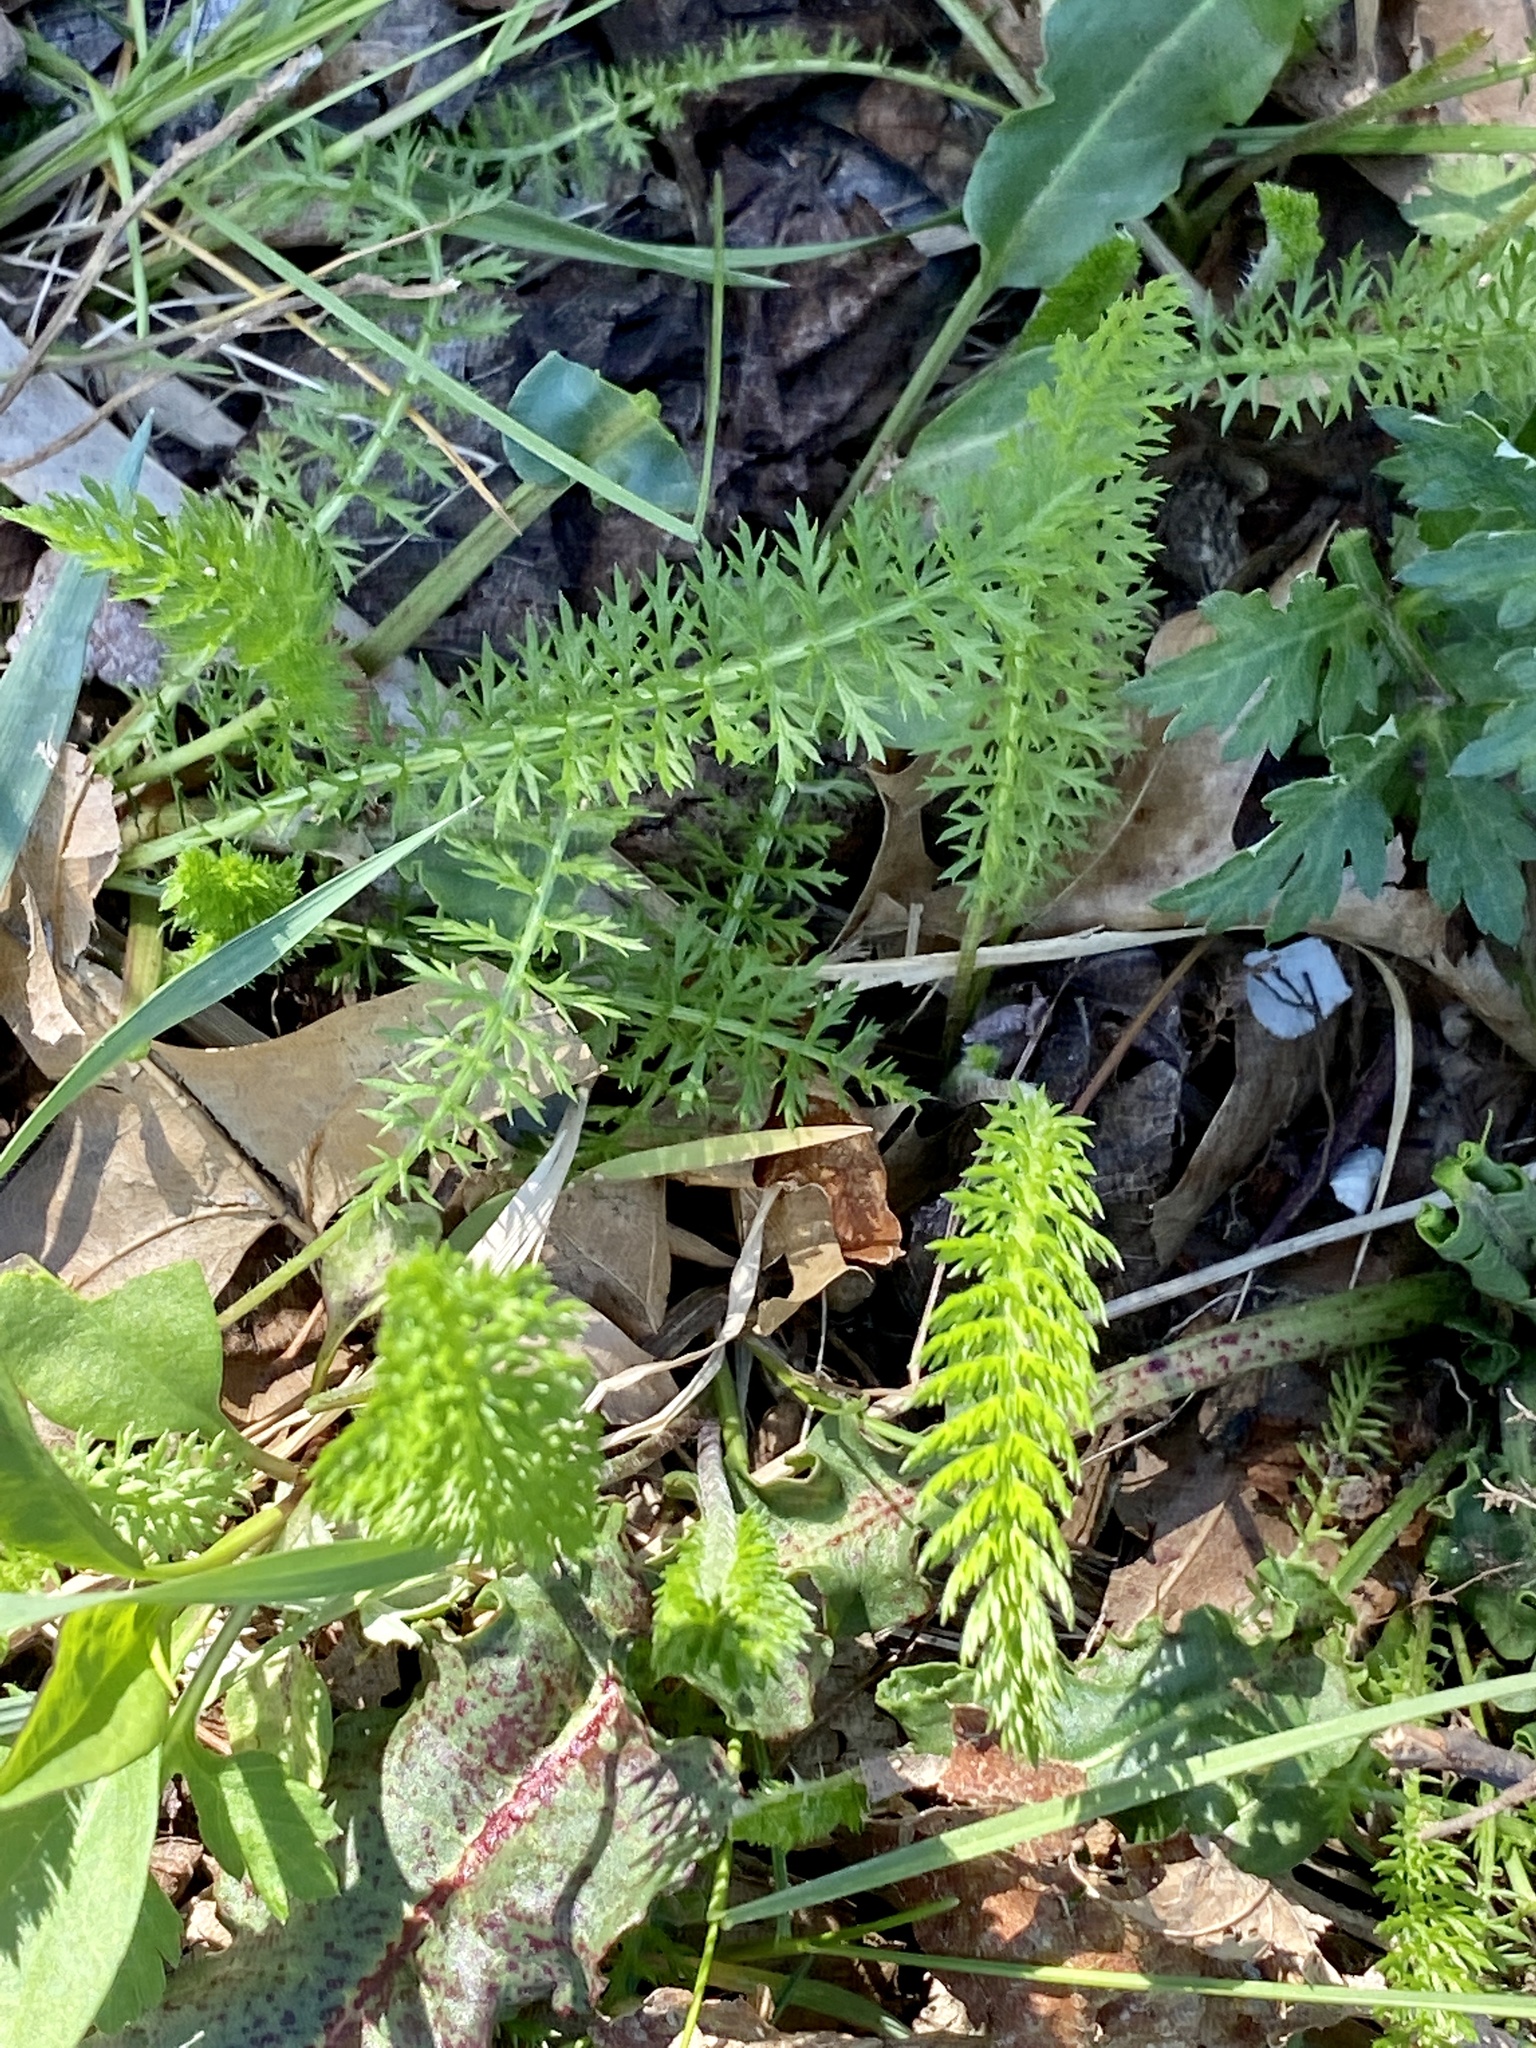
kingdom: Plantae
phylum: Tracheophyta
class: Magnoliopsida
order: Asterales
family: Asteraceae
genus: Achillea
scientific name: Achillea millefolium
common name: Yarrow
